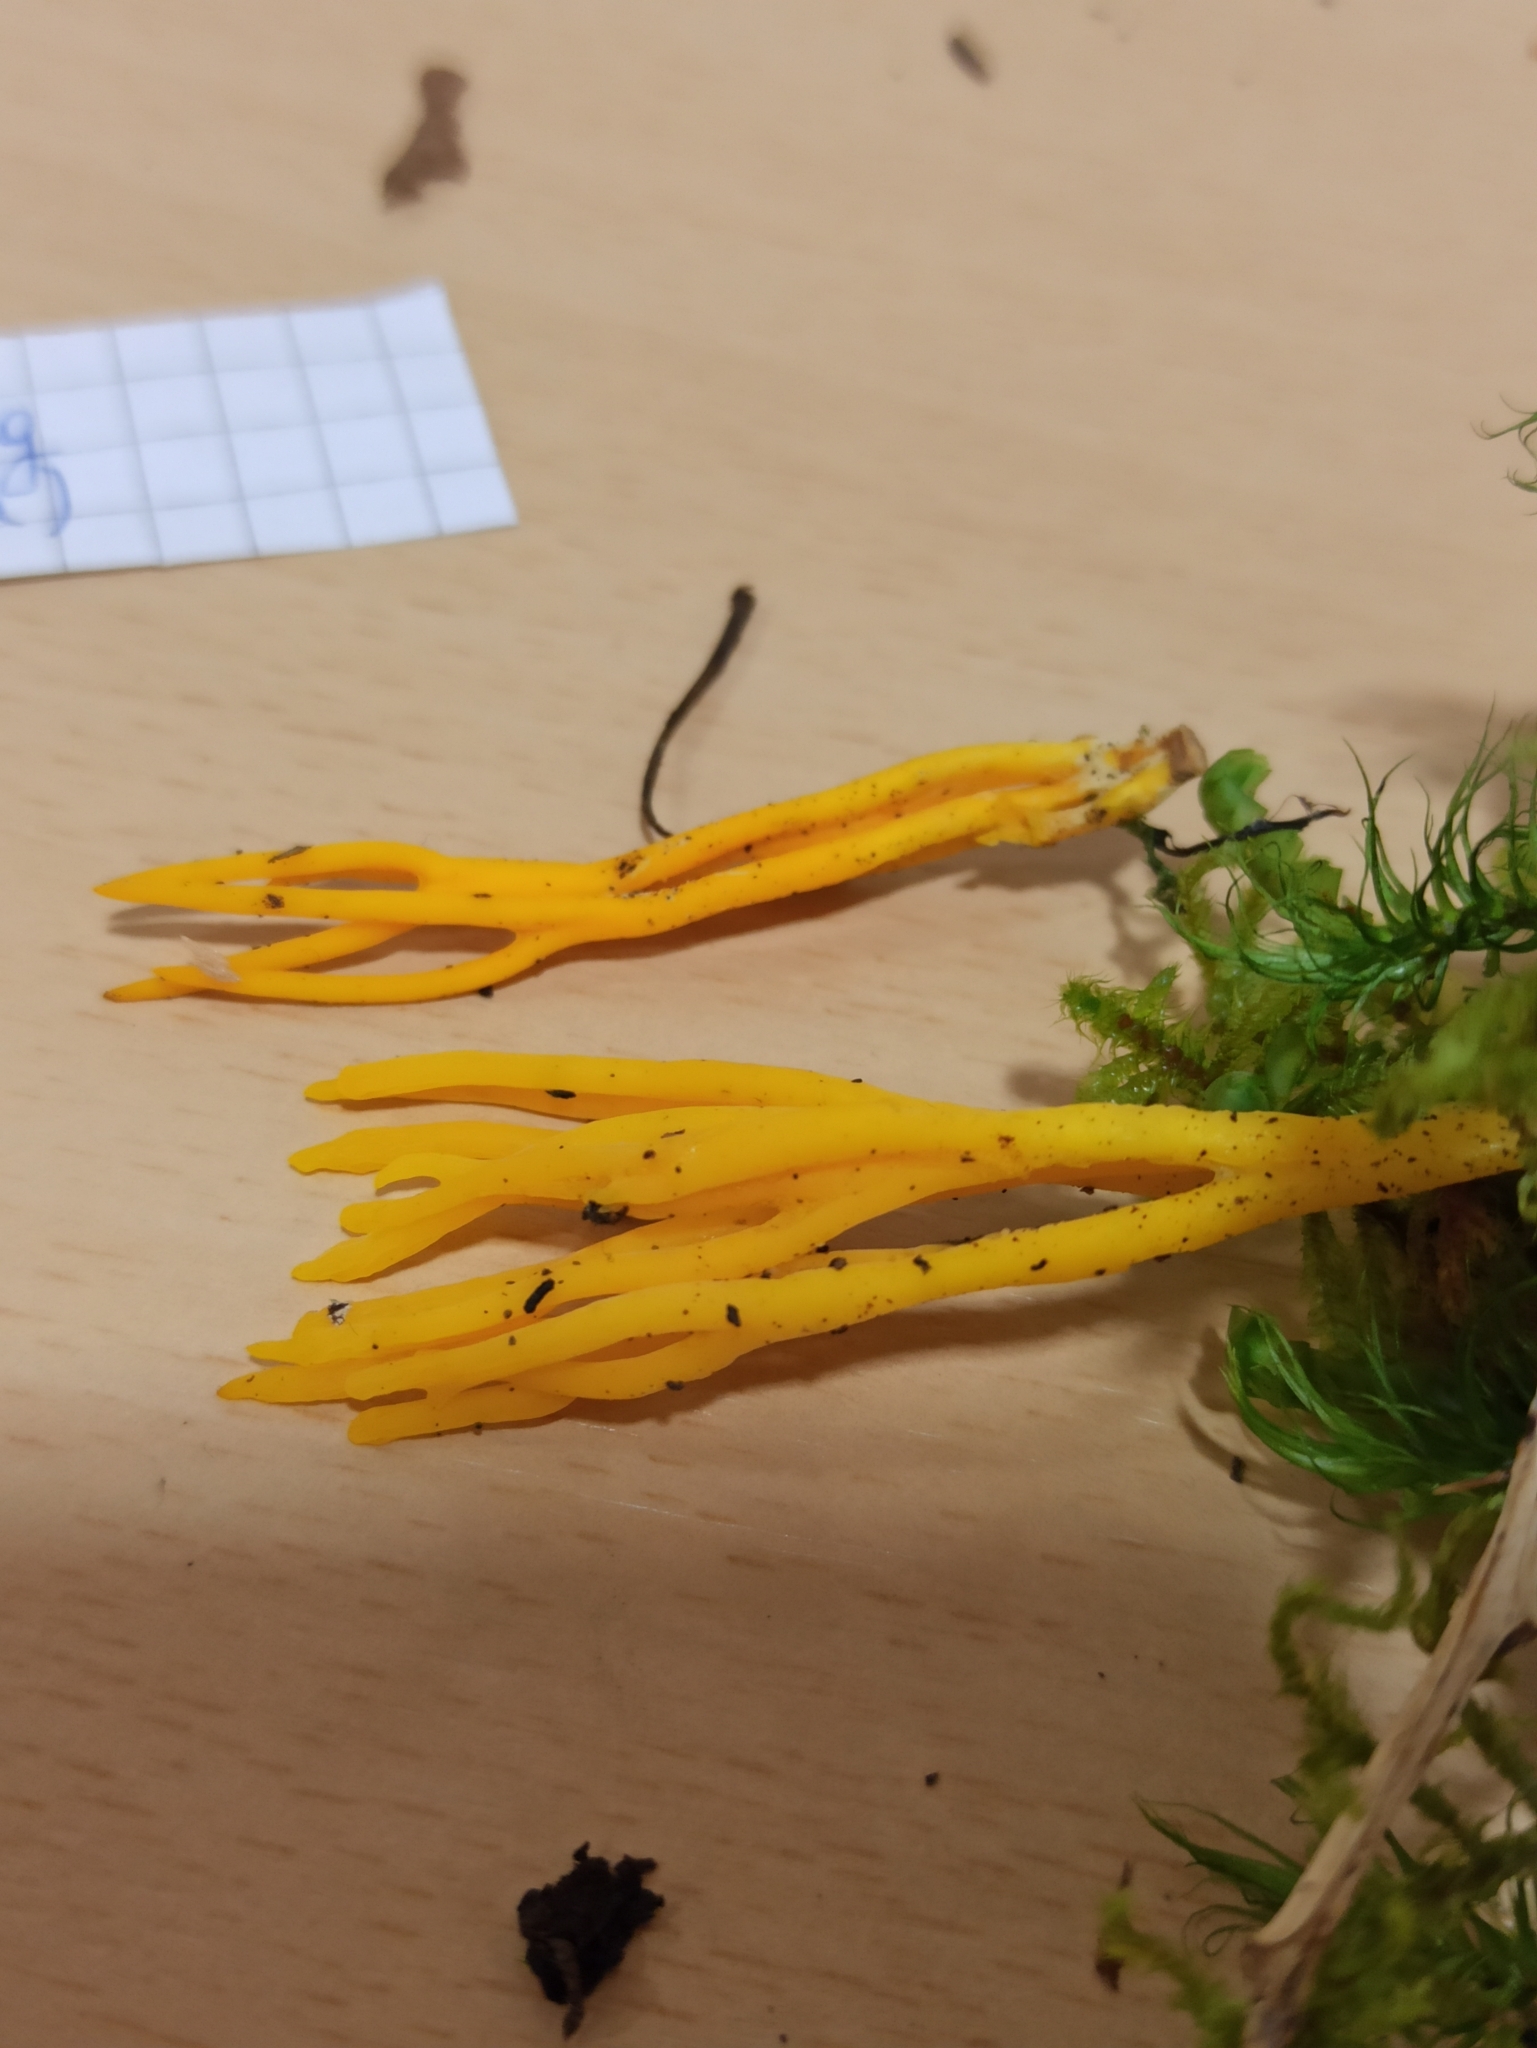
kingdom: Fungi
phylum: Basidiomycota
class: Dacrymycetes
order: Dacrymycetales
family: Dacrymycetaceae
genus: Calocera
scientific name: Calocera viscosa
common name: Yellow stagshorn
